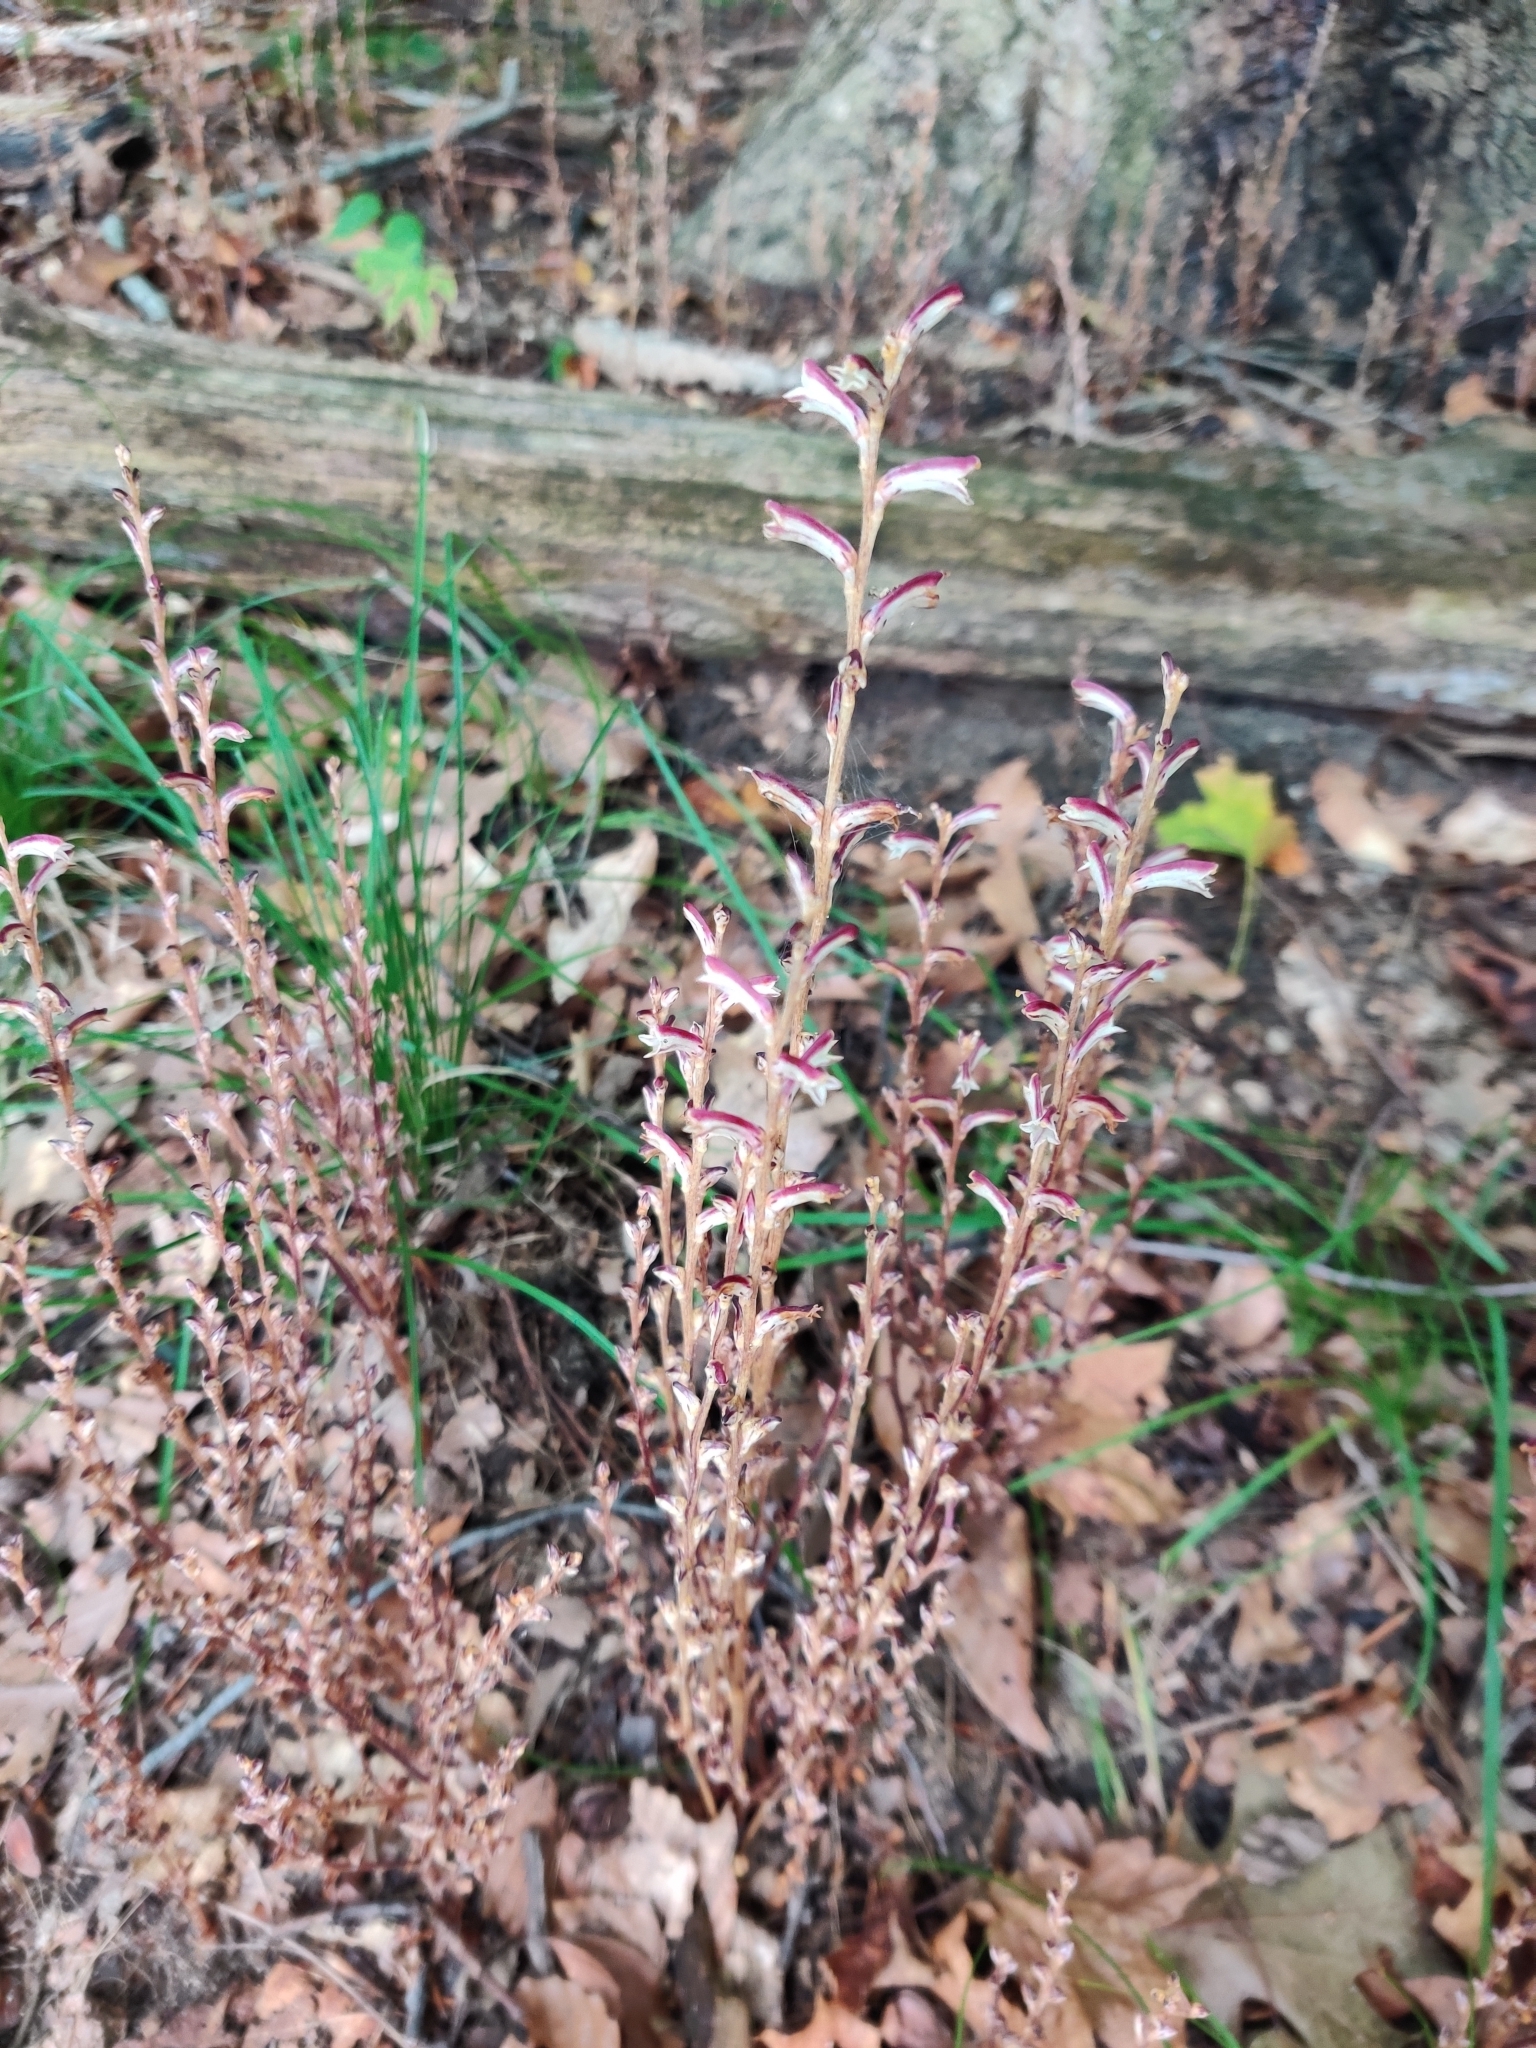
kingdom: Plantae
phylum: Tracheophyta
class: Magnoliopsida
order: Lamiales
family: Orobanchaceae
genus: Epifagus
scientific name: Epifagus virginiana
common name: Beechdrops
